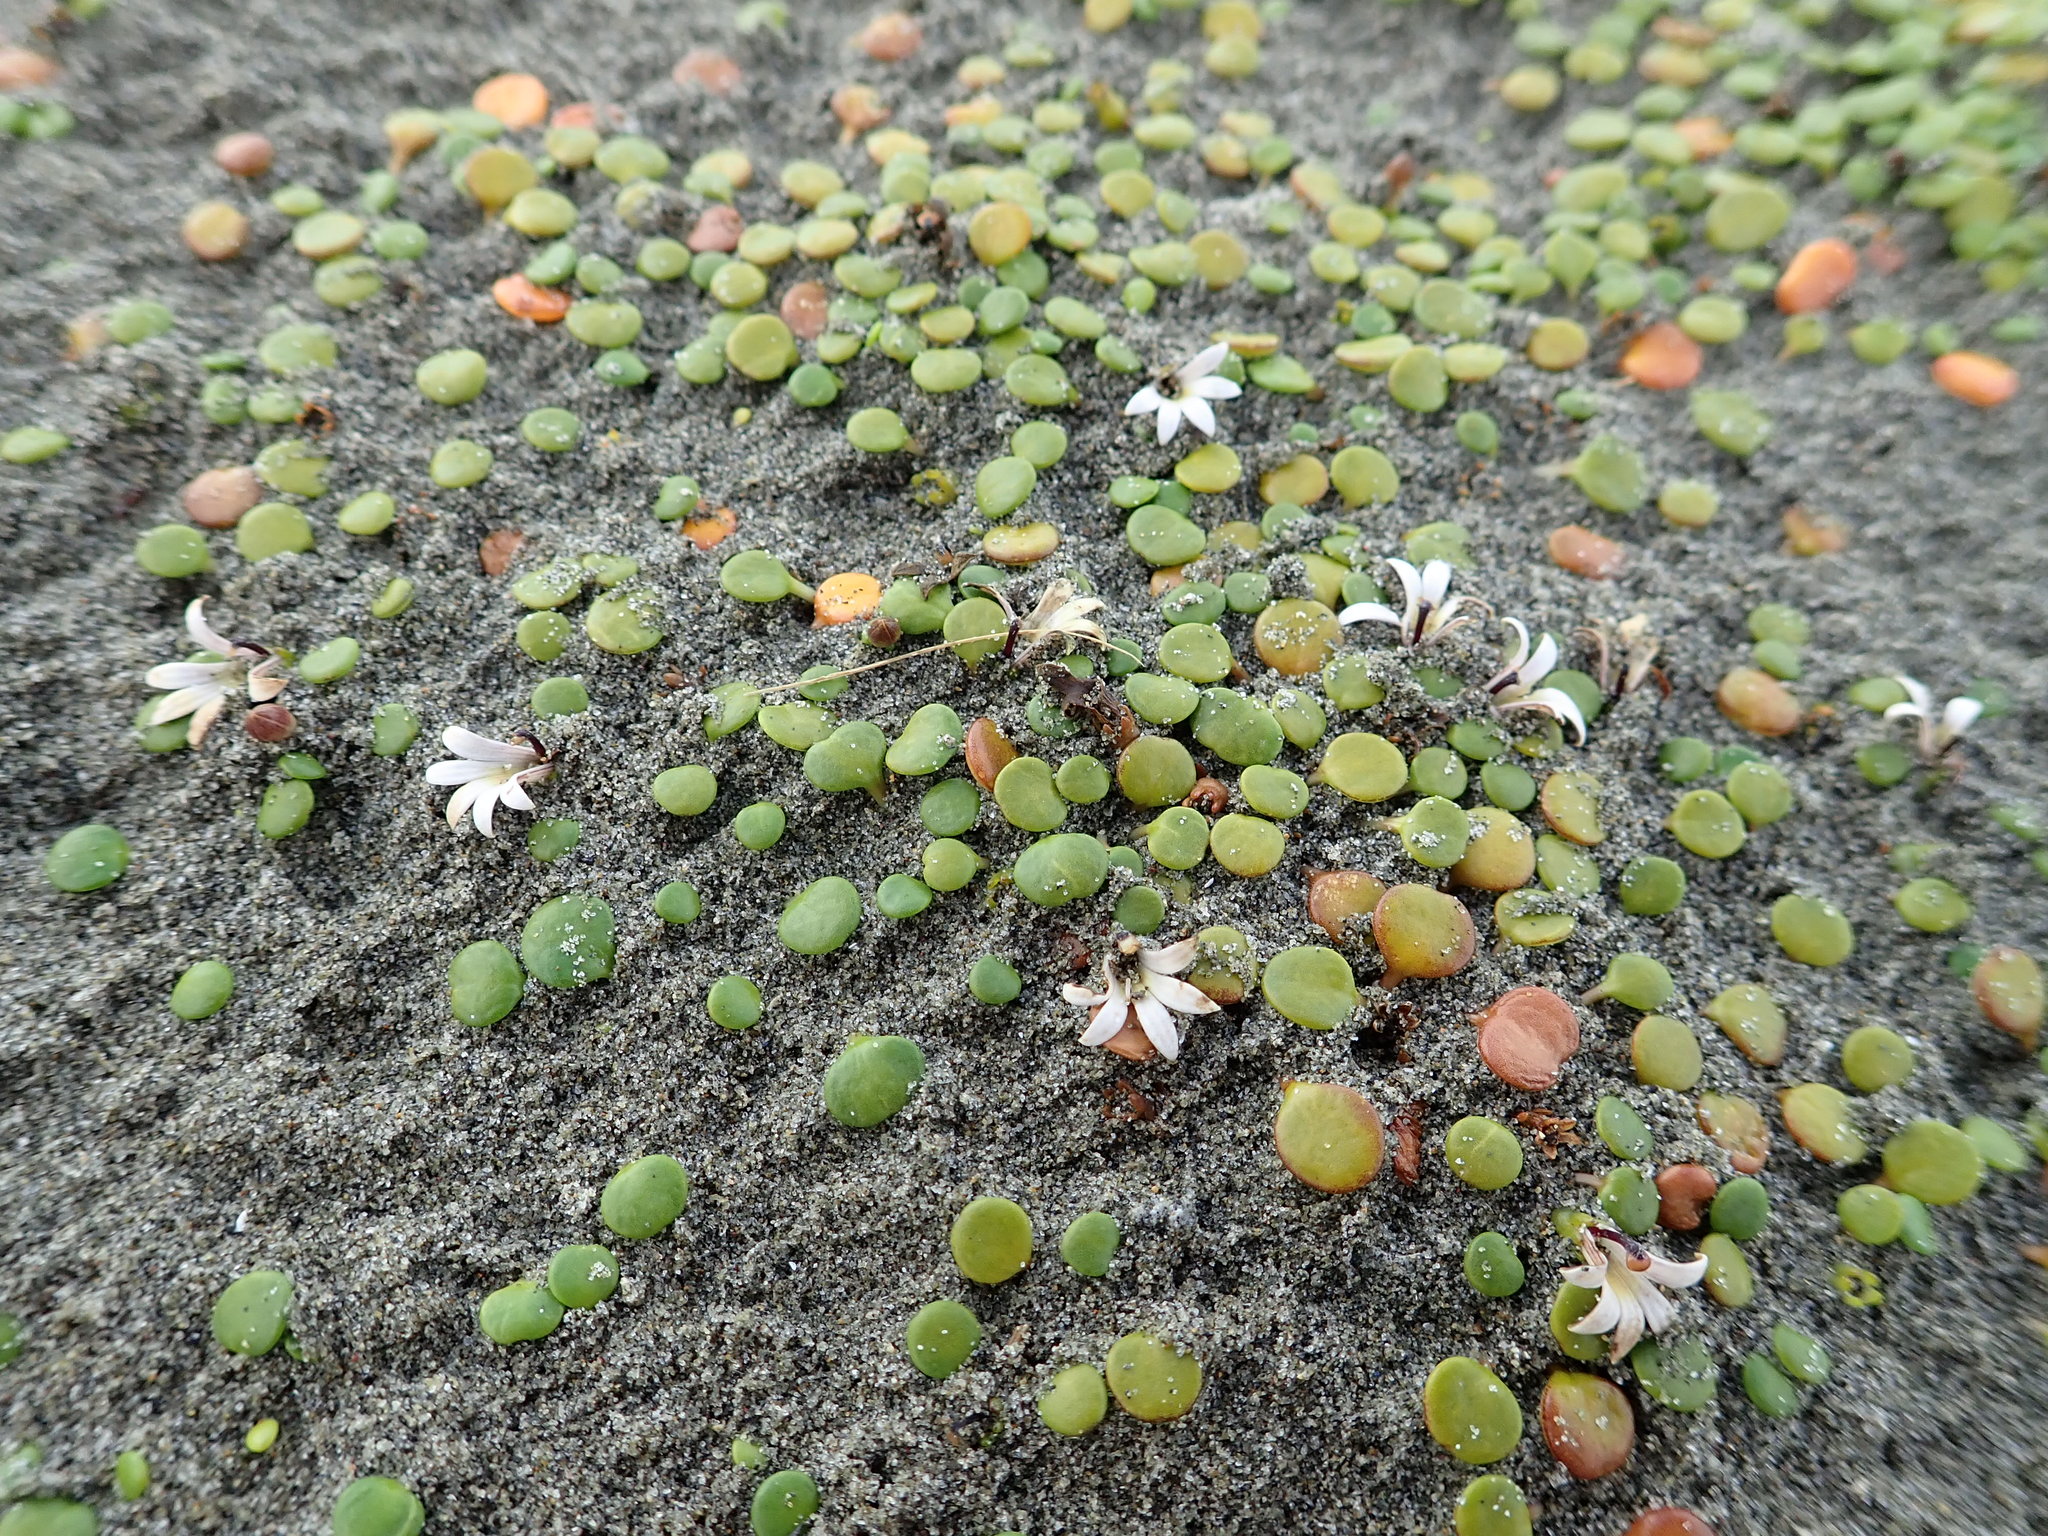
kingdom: Plantae
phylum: Tracheophyta
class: Magnoliopsida
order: Asterales
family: Goodeniaceae
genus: Goodenia
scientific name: Goodenia heenanii
